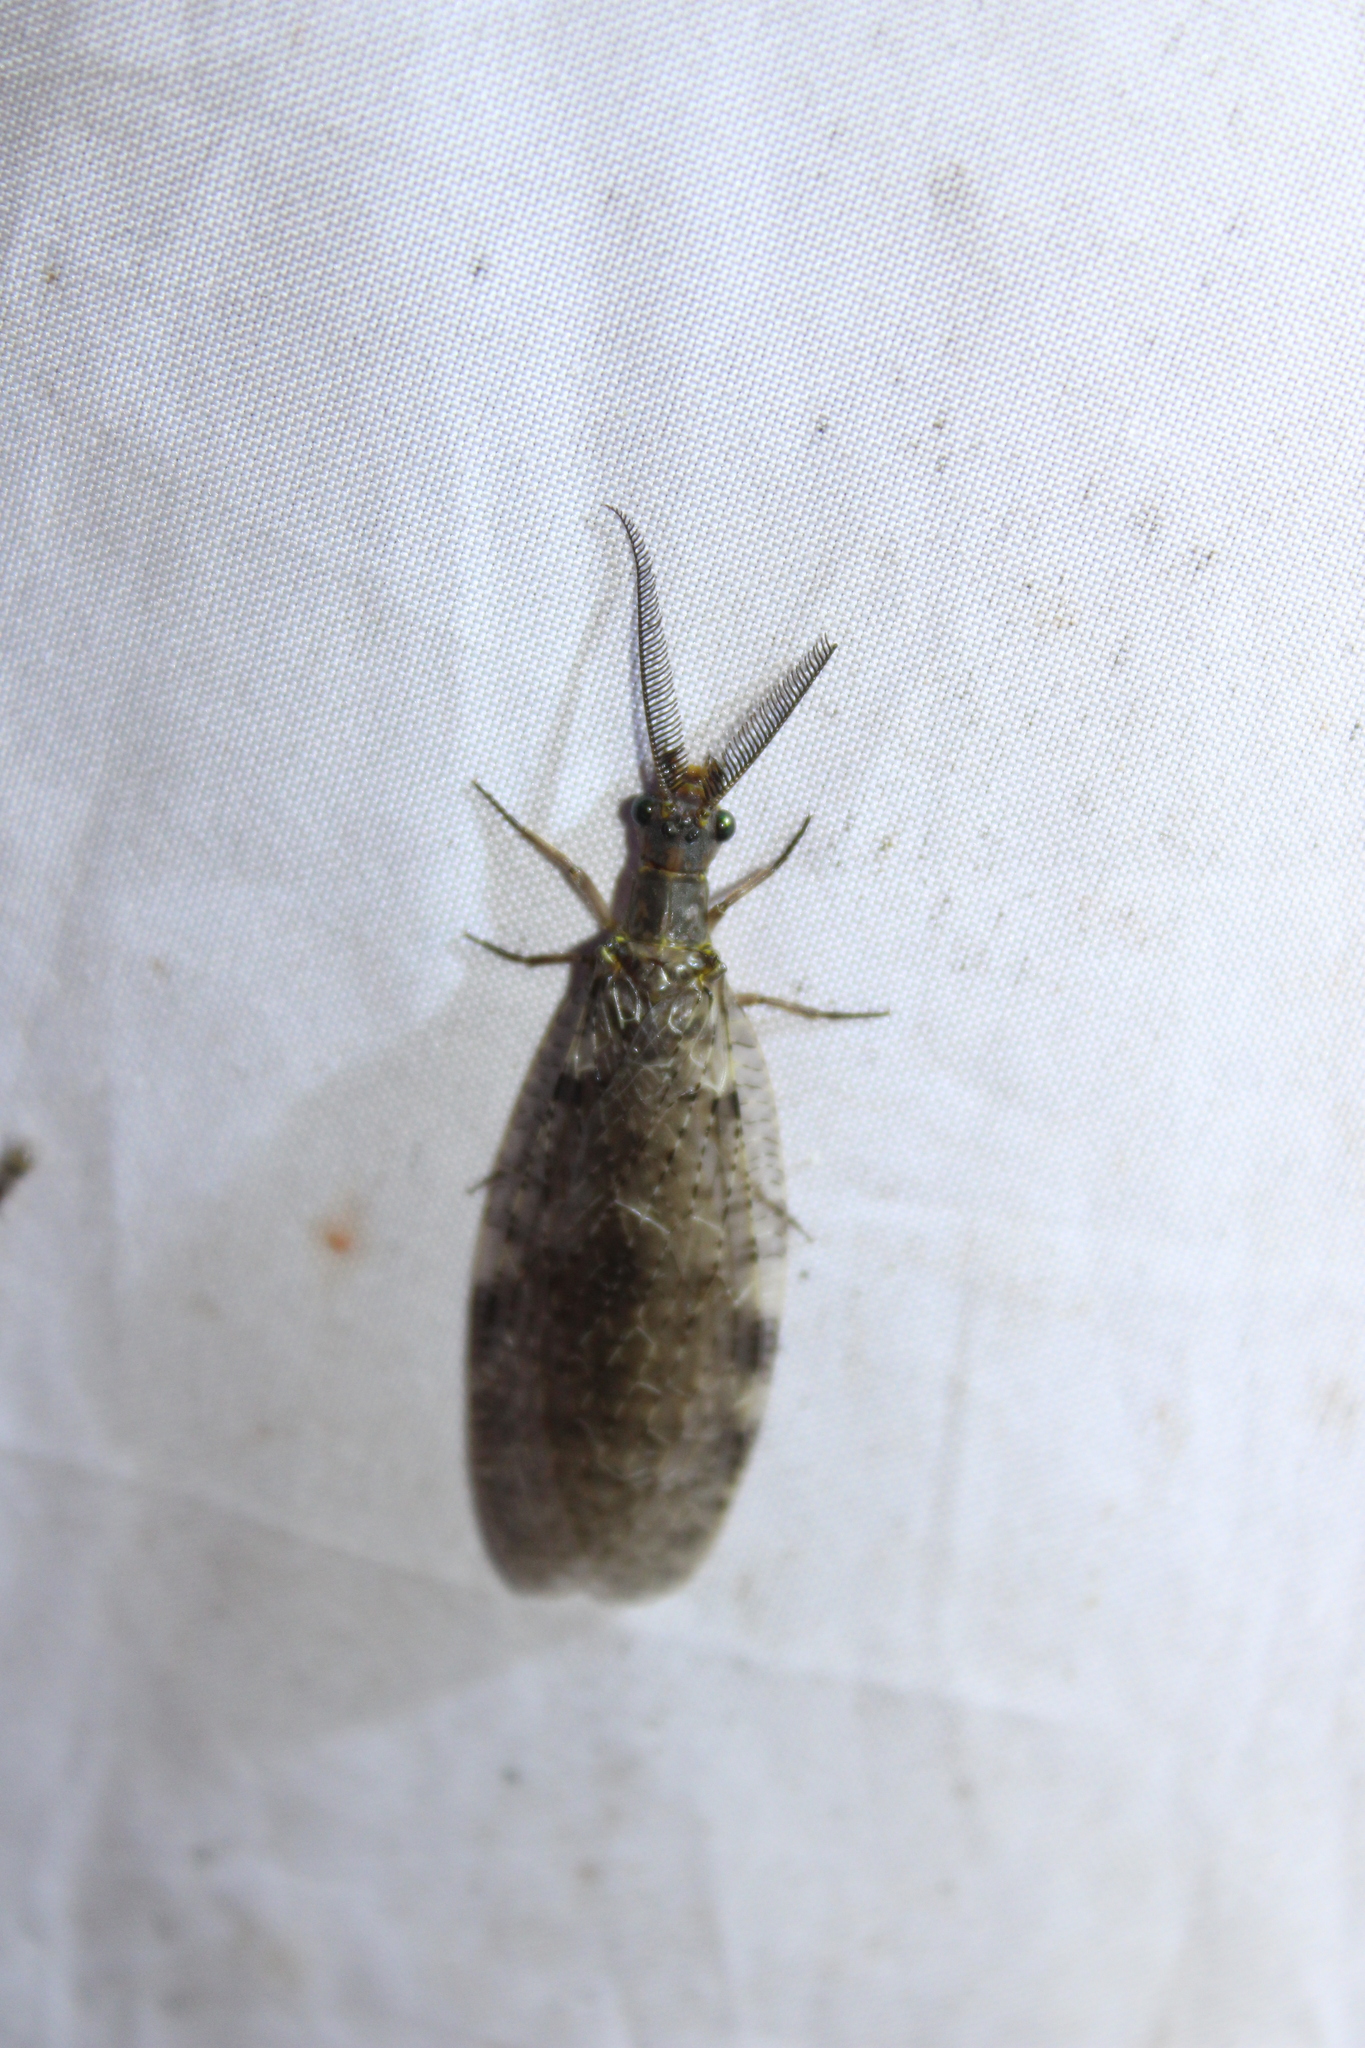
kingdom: Animalia
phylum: Arthropoda
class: Insecta
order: Megaloptera
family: Corydalidae
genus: Chauliodes
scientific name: Chauliodes pectinicornis
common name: Summer fishfly
